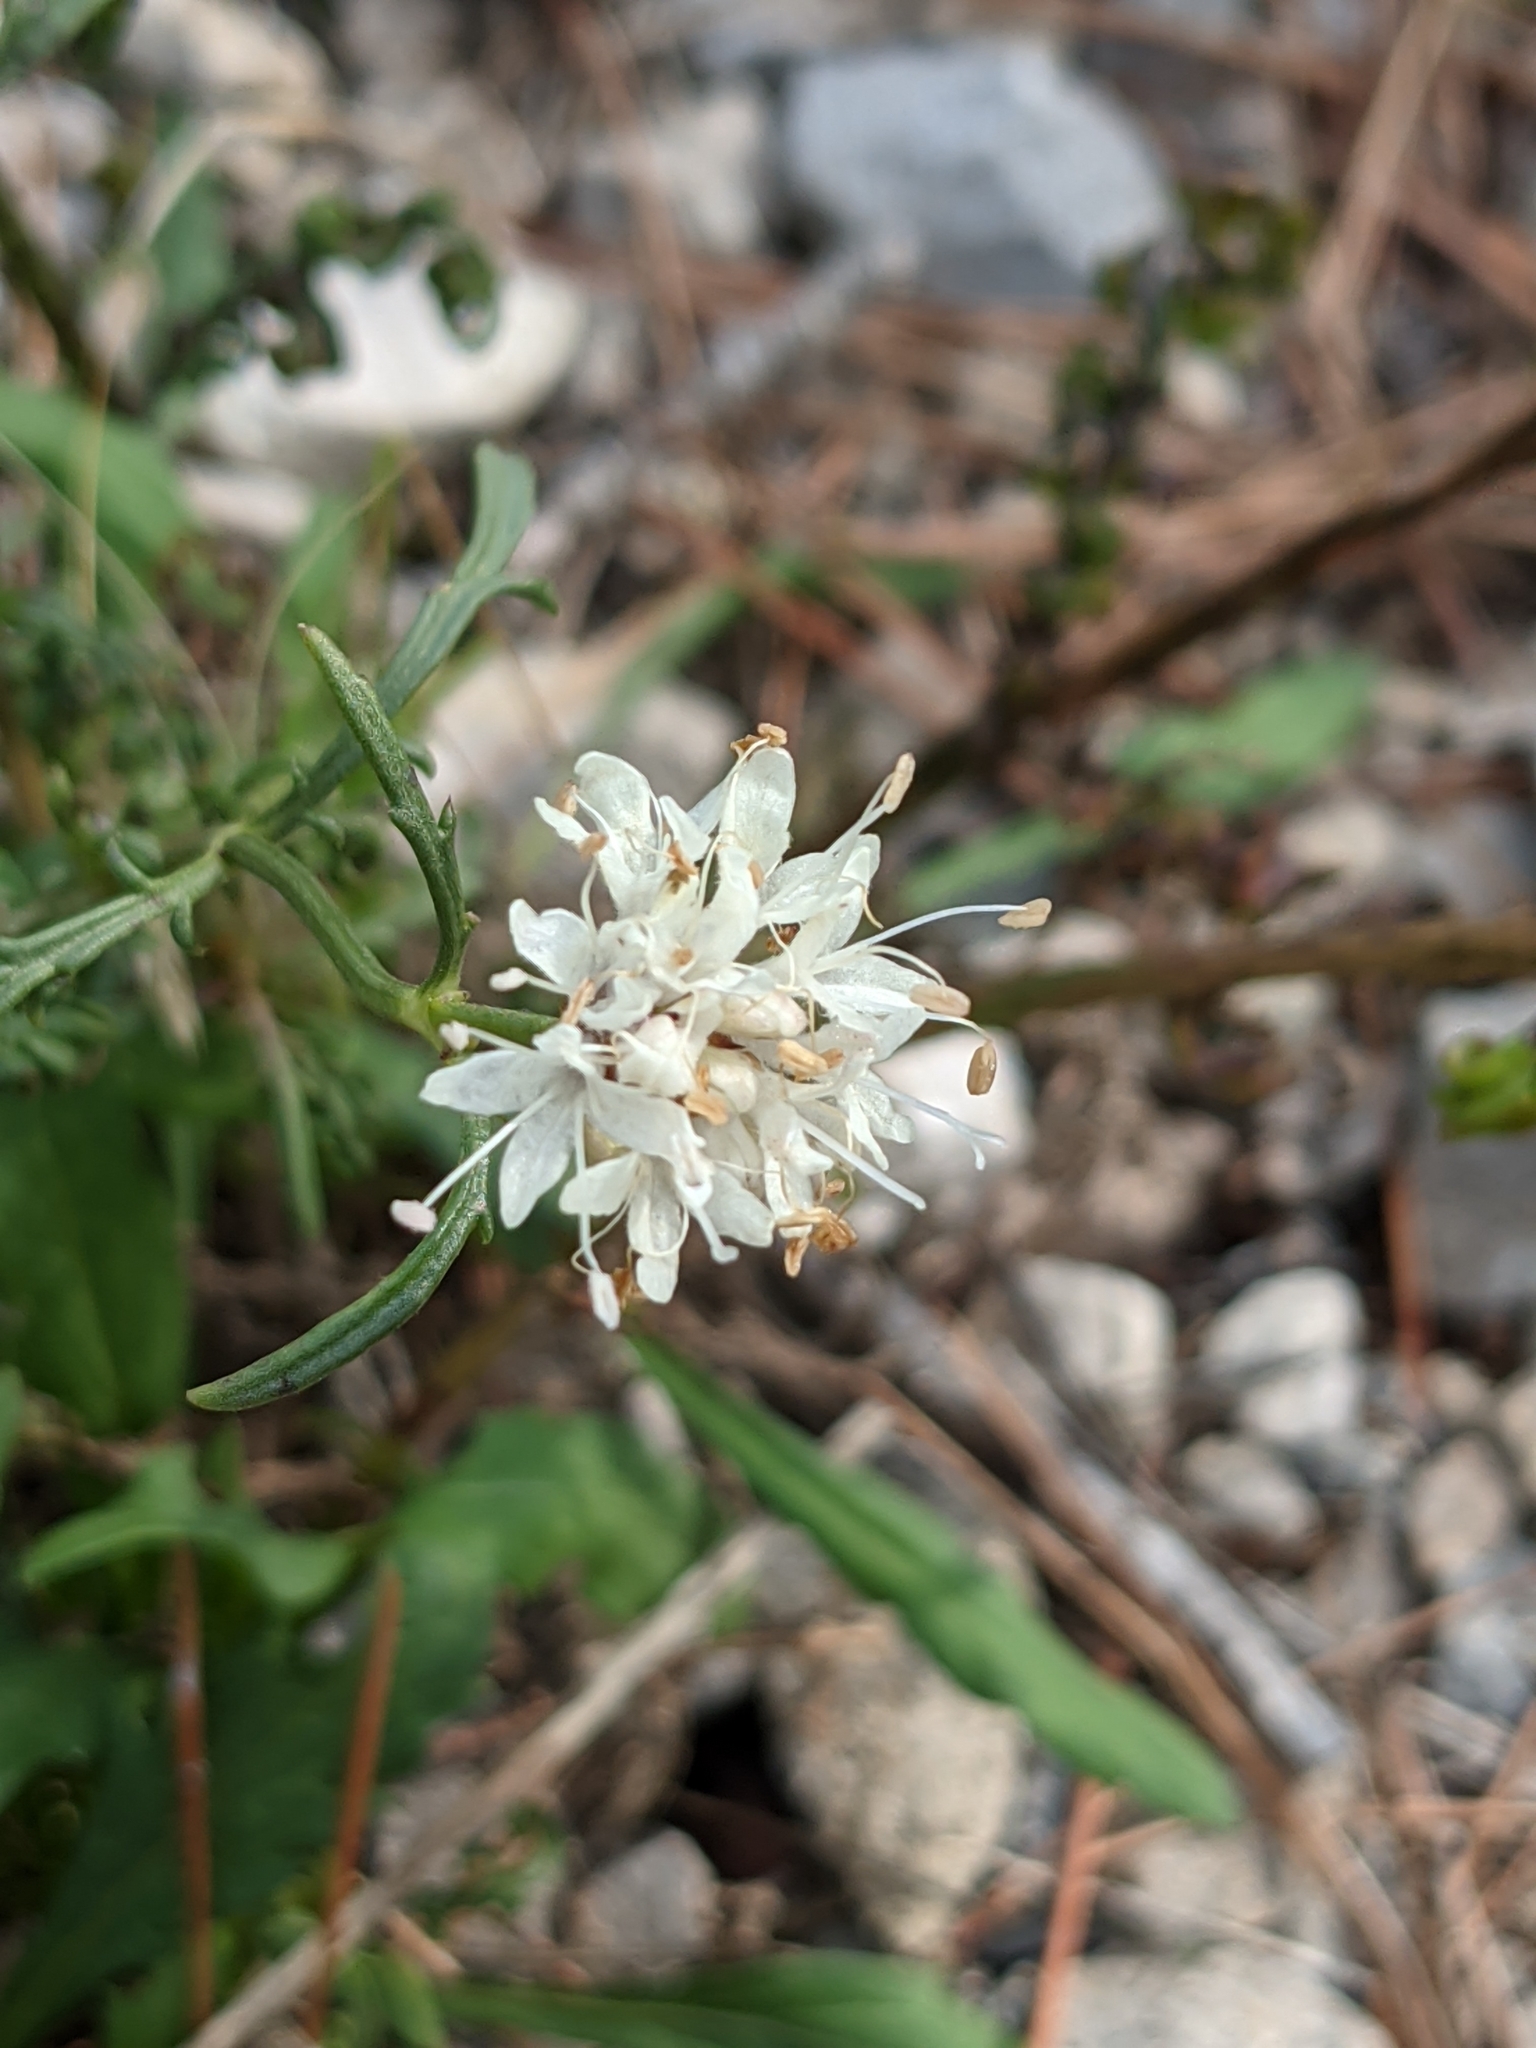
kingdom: Plantae
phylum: Tracheophyta
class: Magnoliopsida
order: Dipsacales
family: Caprifoliaceae
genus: Cephalaria
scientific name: Cephalaria leucantha
